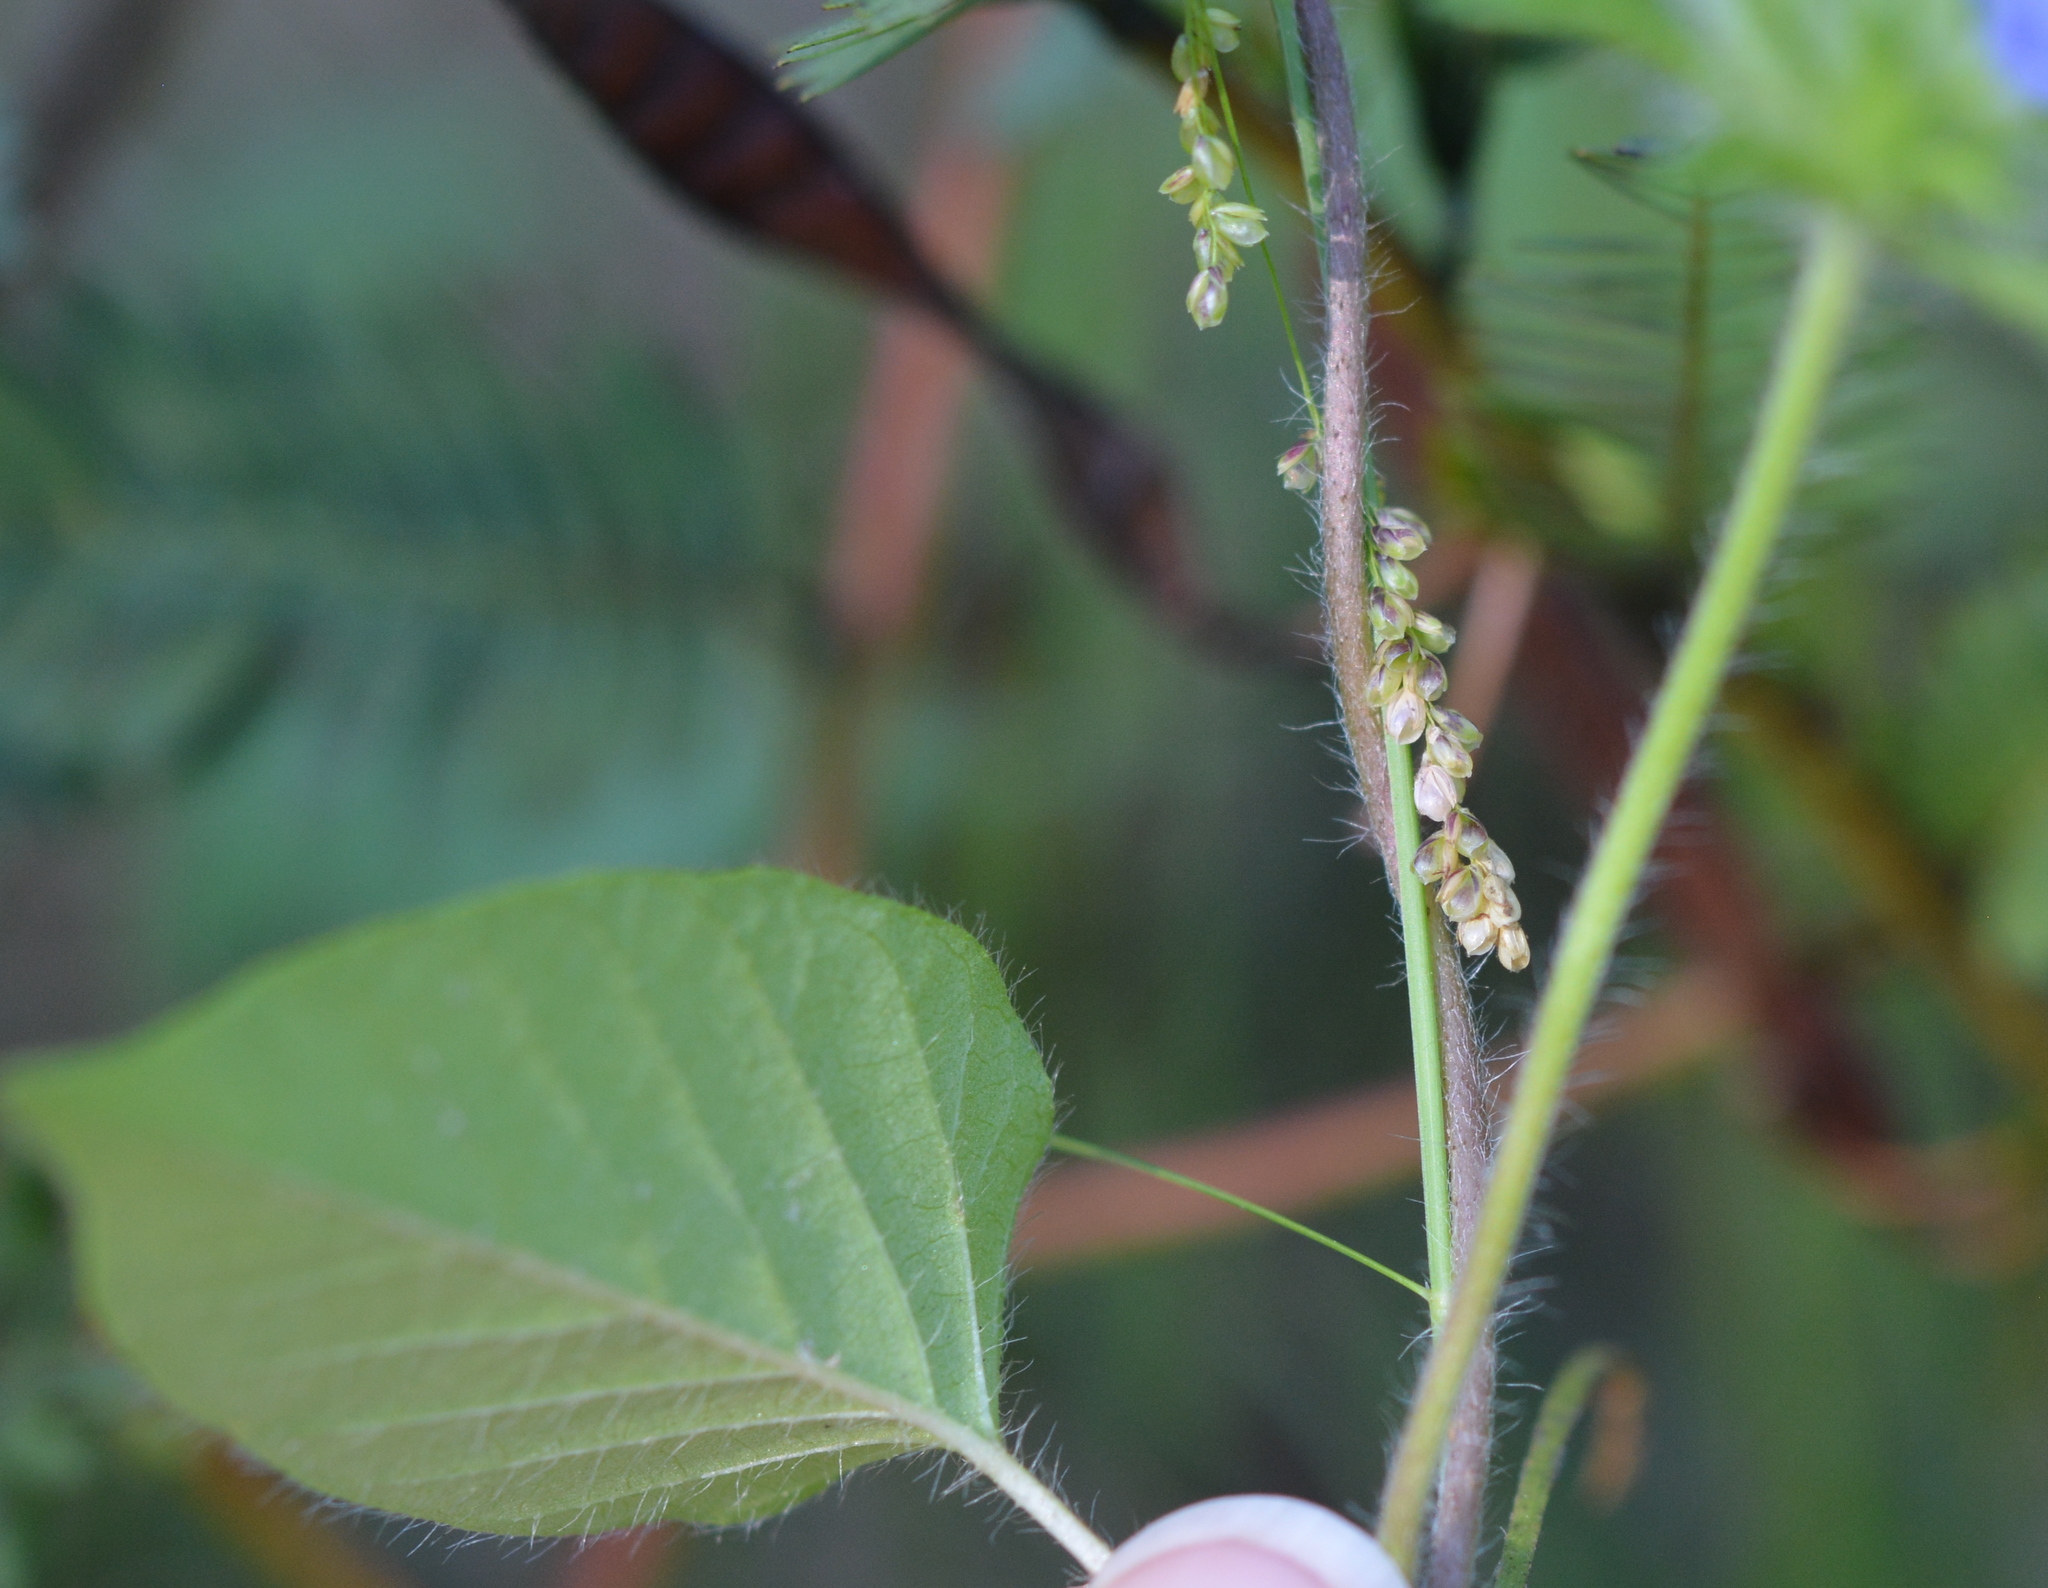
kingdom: Plantae
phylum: Tracheophyta
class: Magnoliopsida
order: Solanales
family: Convolvulaceae
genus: Jacquemontia
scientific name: Jacquemontia tamnifolia
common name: Hairy clustervine
